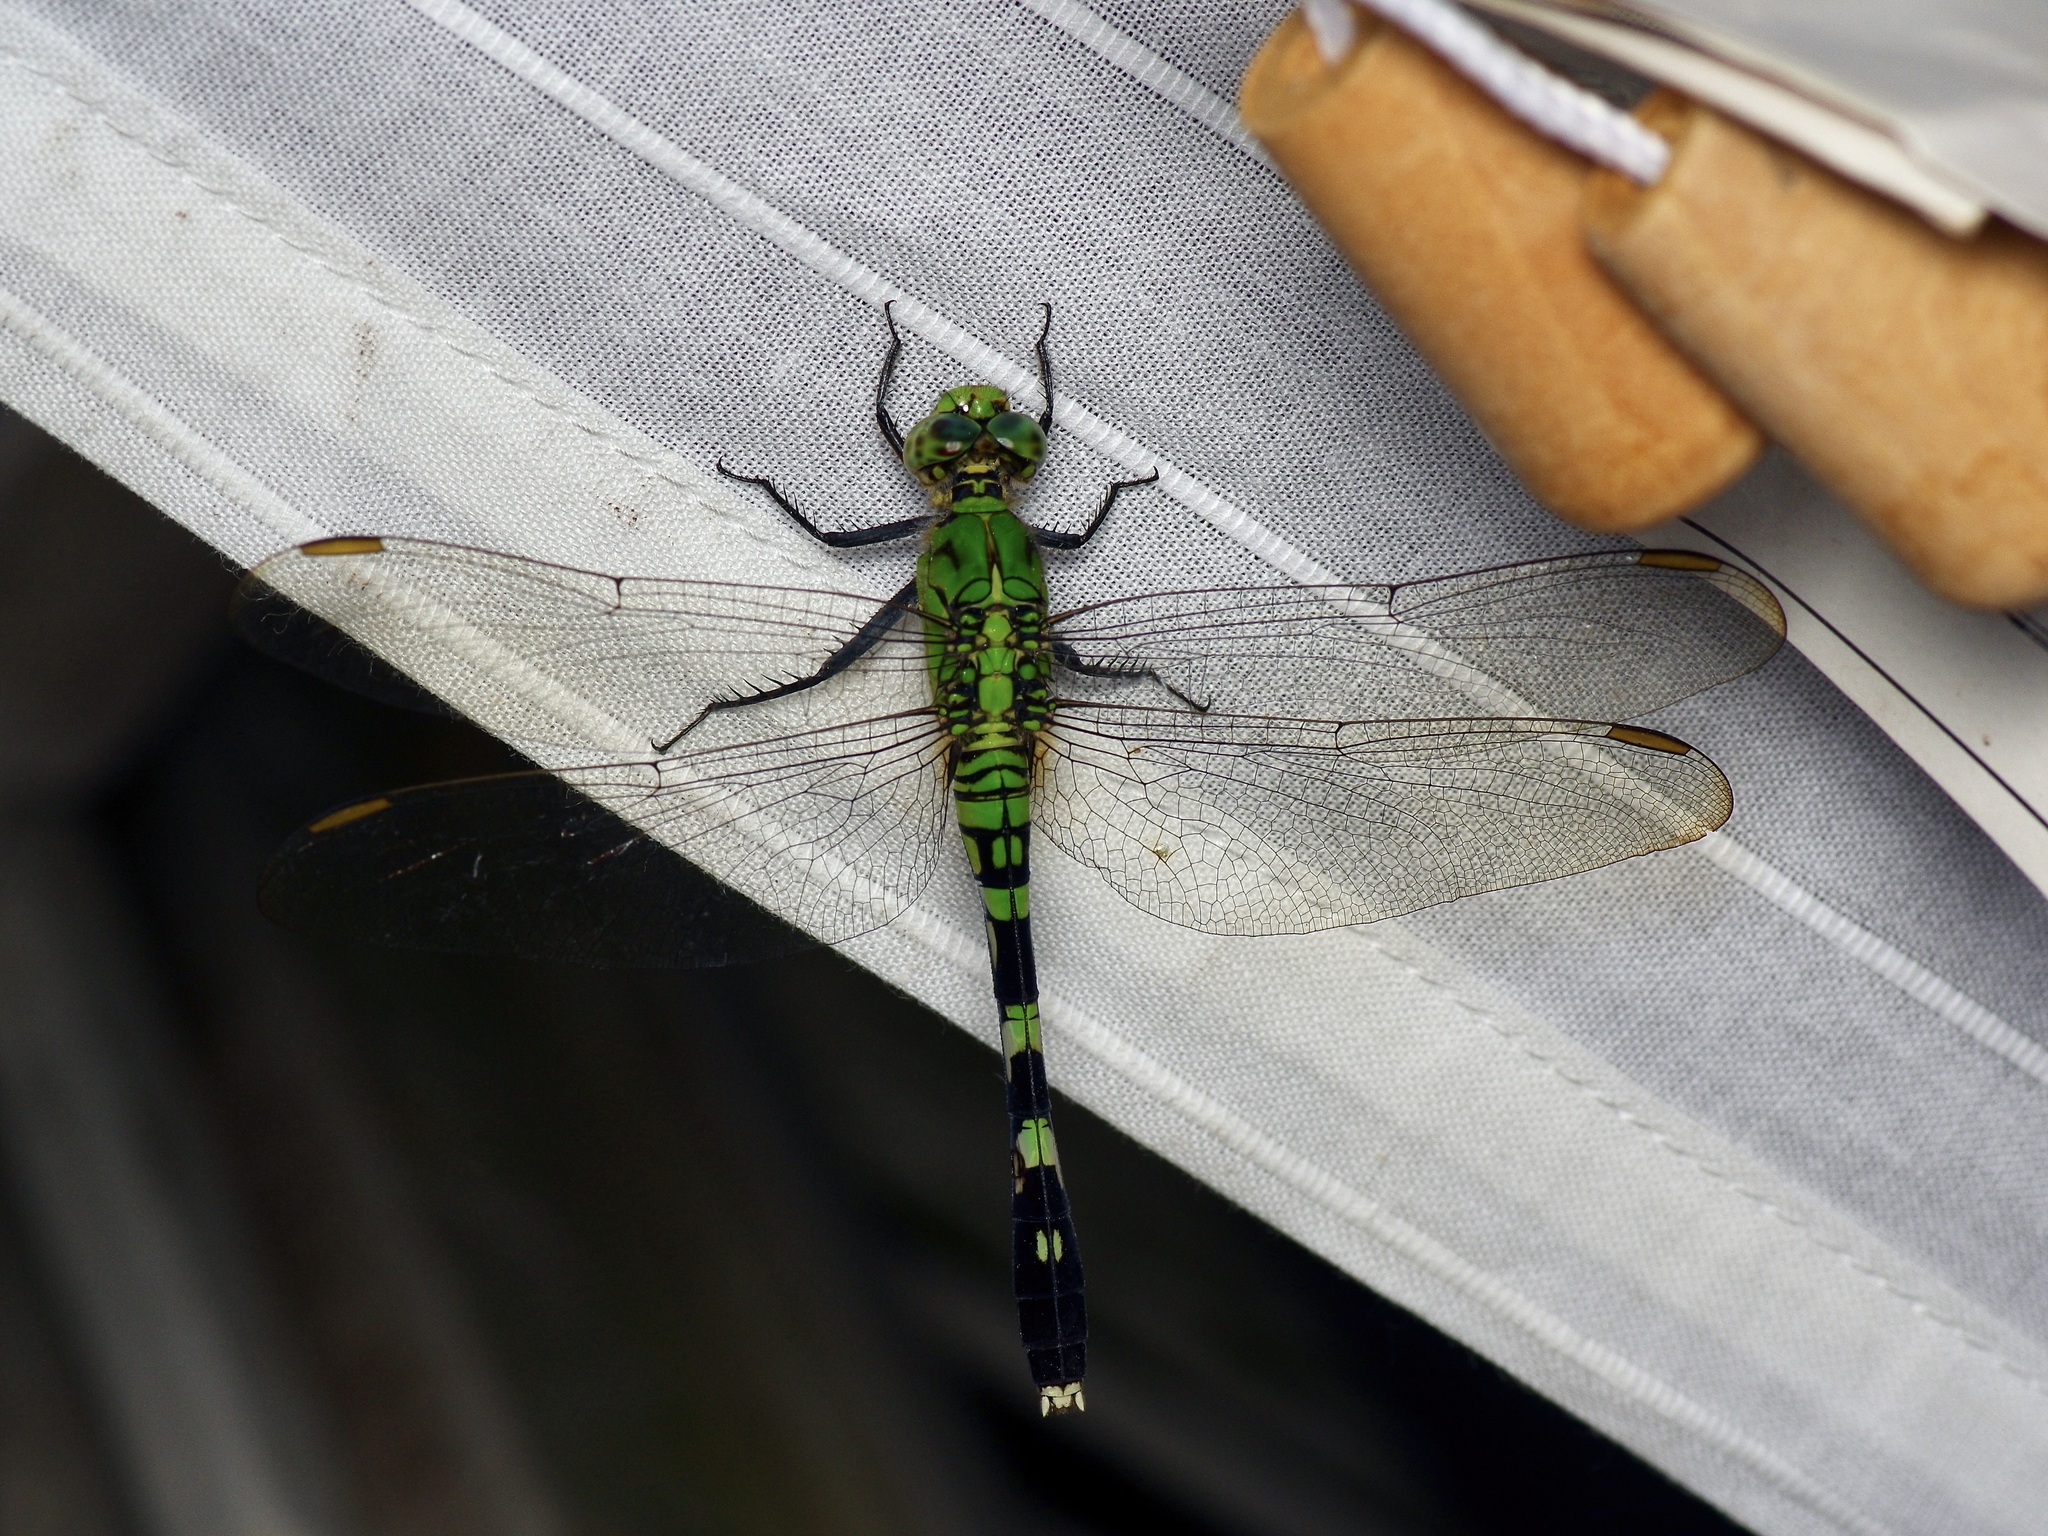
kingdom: Animalia
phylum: Arthropoda
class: Insecta
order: Odonata
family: Libellulidae
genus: Erythemis
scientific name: Erythemis simplicicollis
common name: Eastern pondhawk
